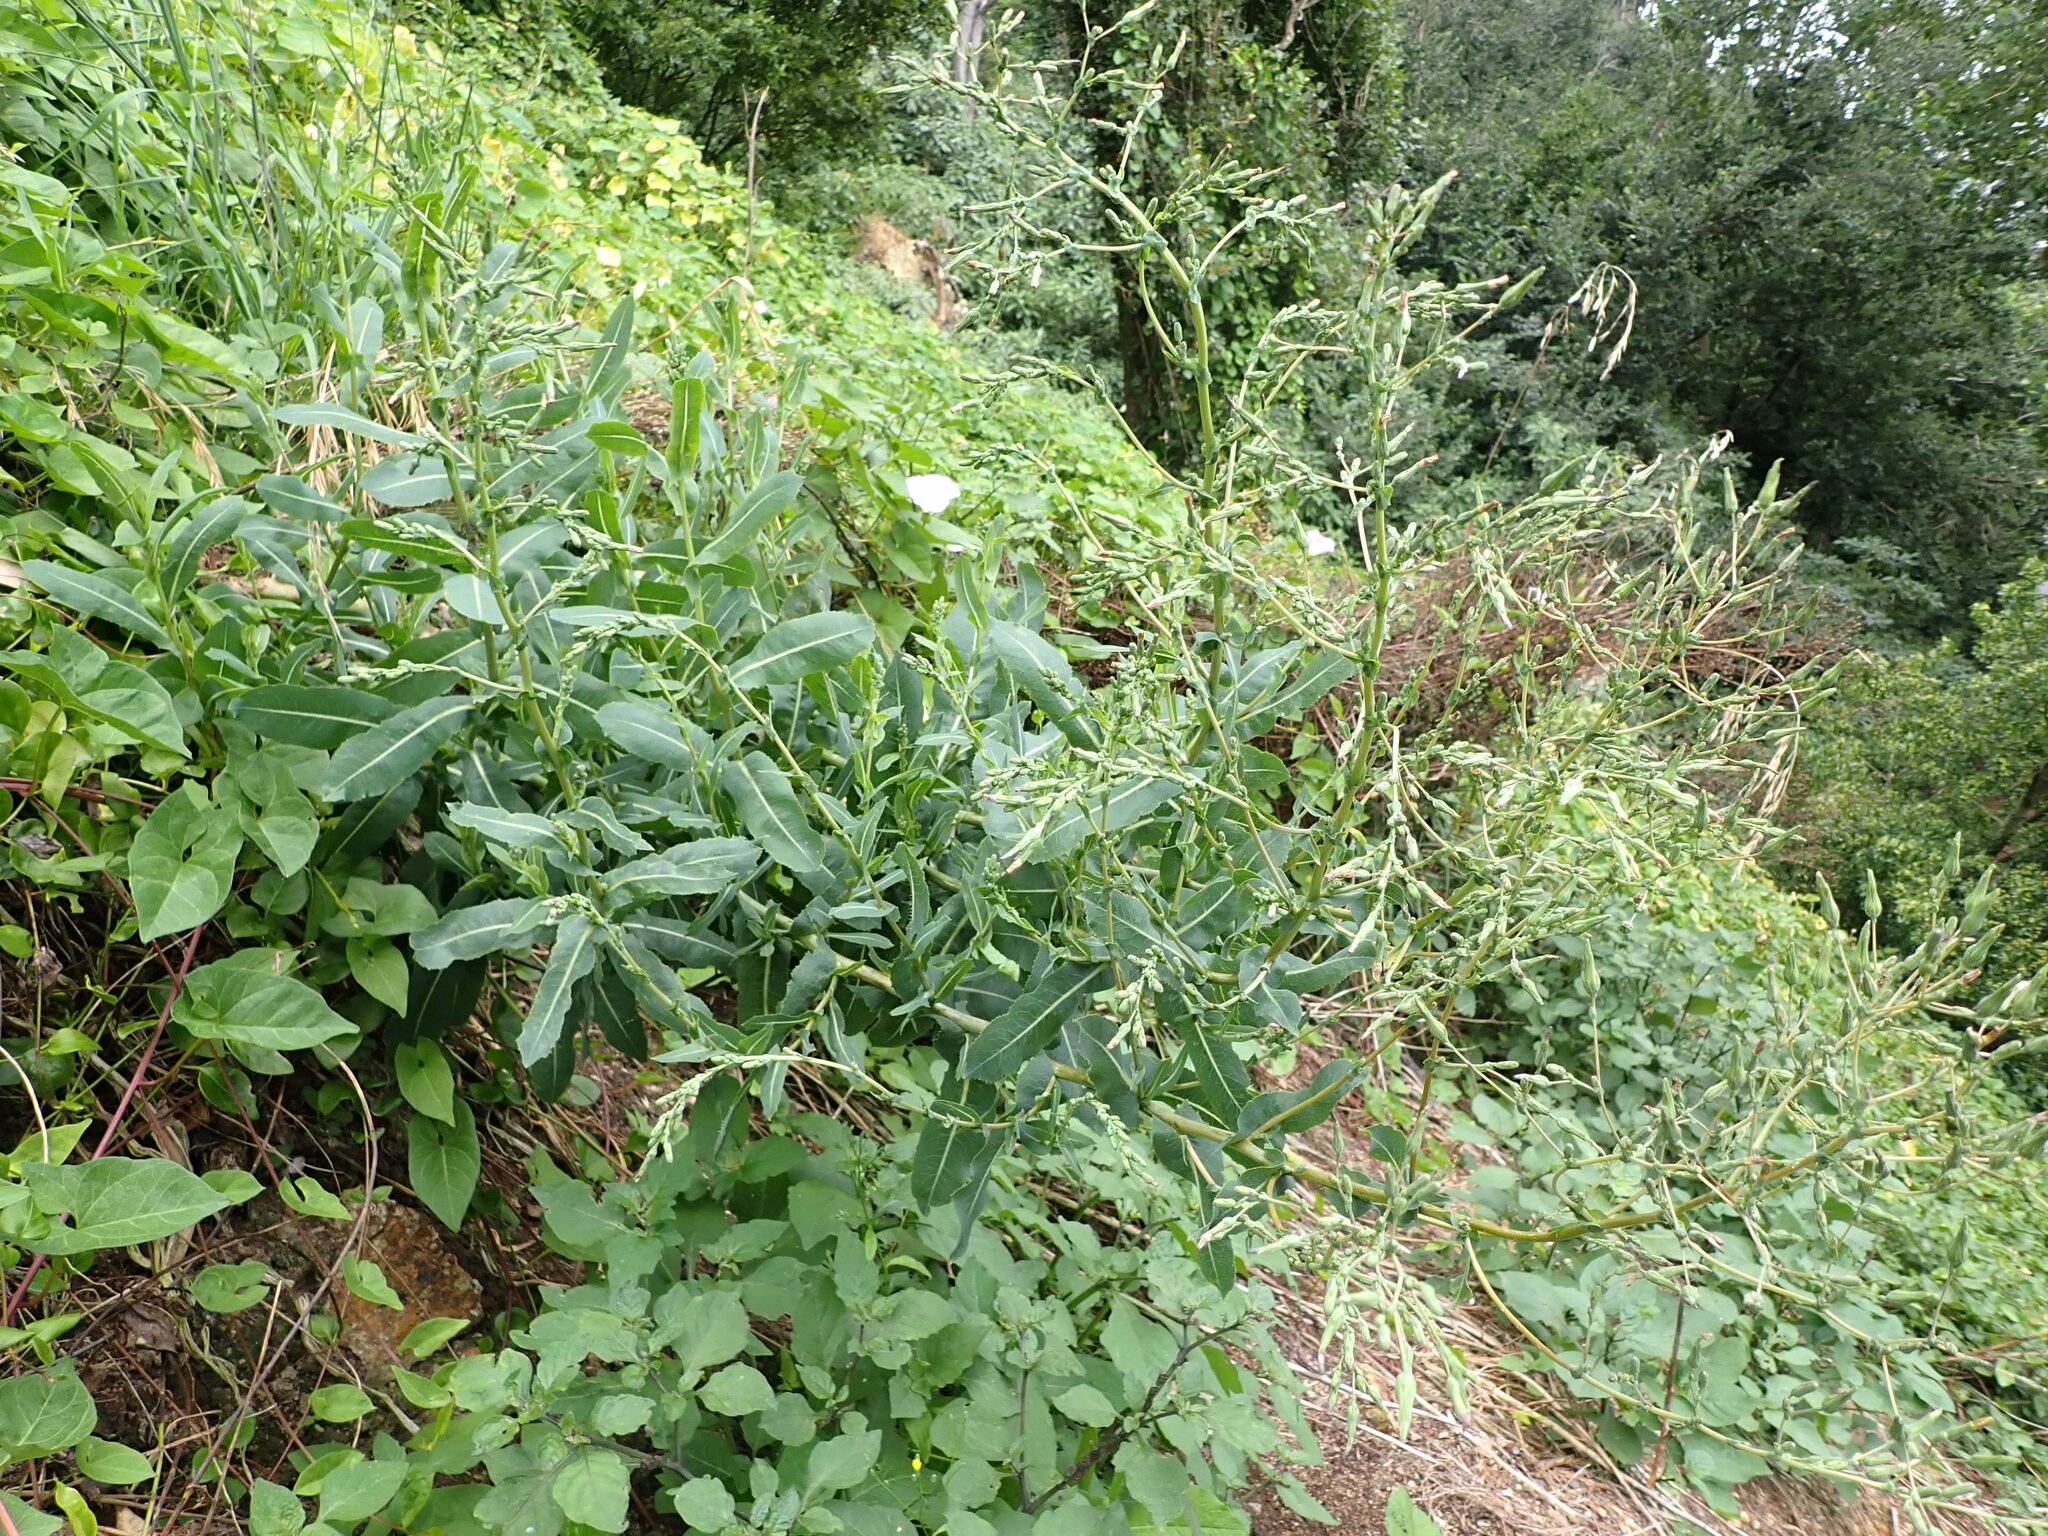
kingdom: Plantae
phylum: Tracheophyta
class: Magnoliopsida
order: Asterales
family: Asteraceae
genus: Lactuca
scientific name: Lactuca serriola
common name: Prickly lettuce
